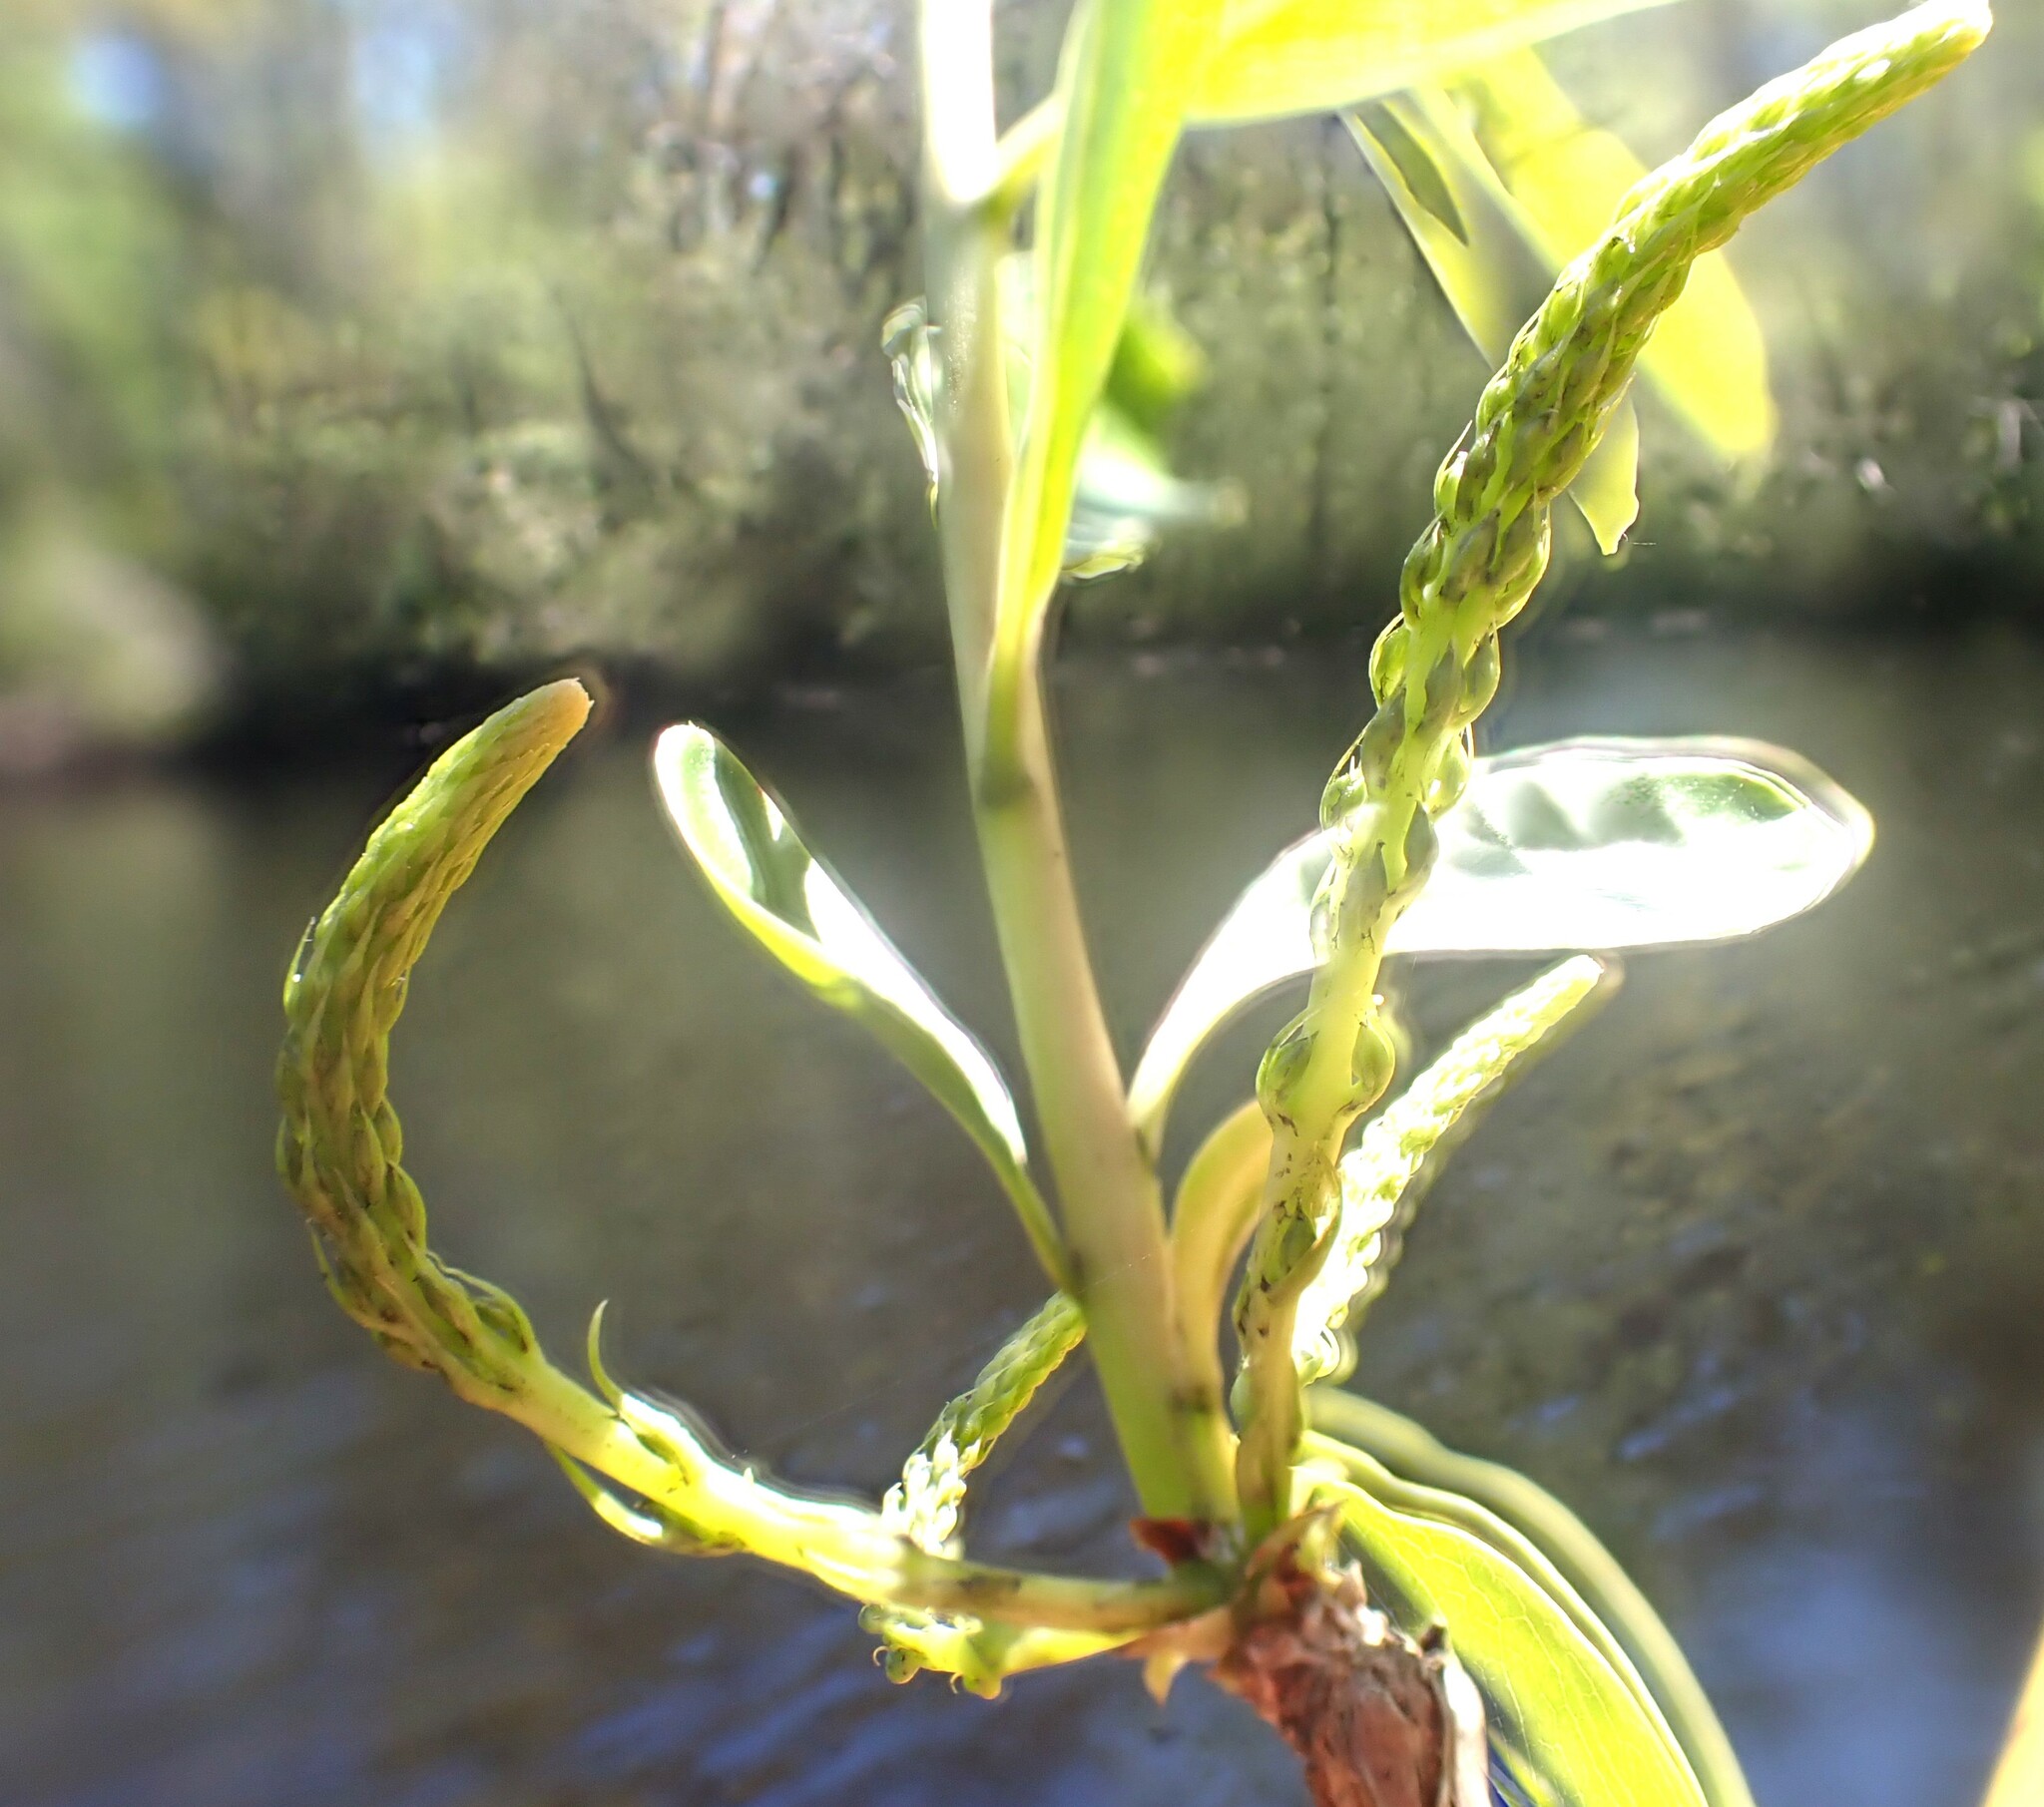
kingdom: Plantae
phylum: Tracheophyta
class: Magnoliopsida
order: Ericales
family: Cyrillaceae
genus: Cyrilla
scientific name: Cyrilla racemiflora
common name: Black titi
